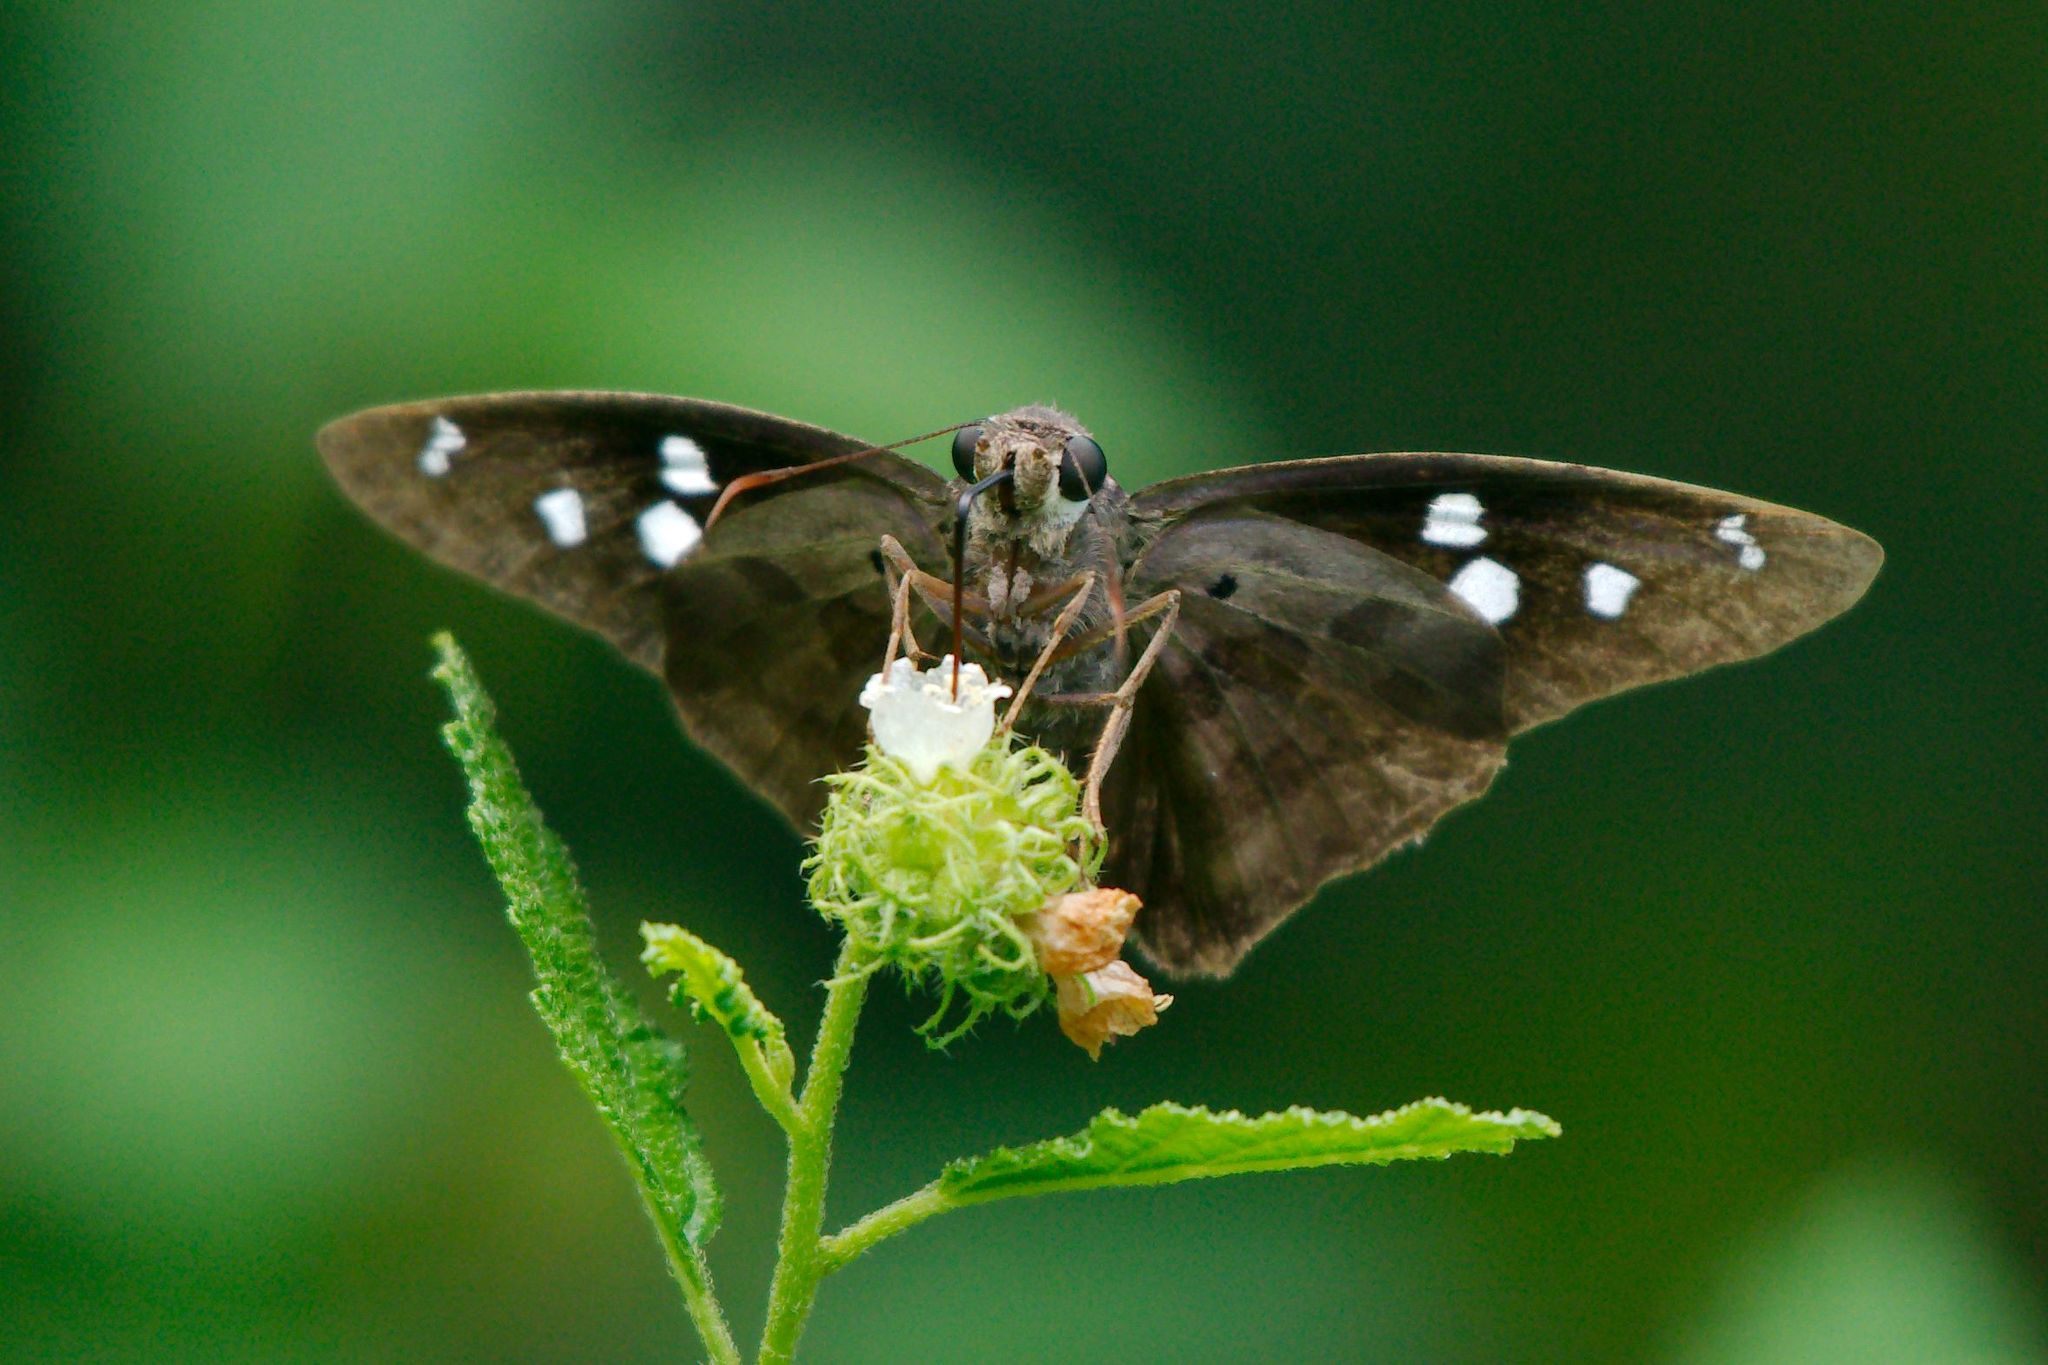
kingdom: Animalia
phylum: Arthropoda
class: Insecta
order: Lepidoptera
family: Hesperiidae
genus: Polygonus
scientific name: Polygonus leo
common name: Hammoch skipper
